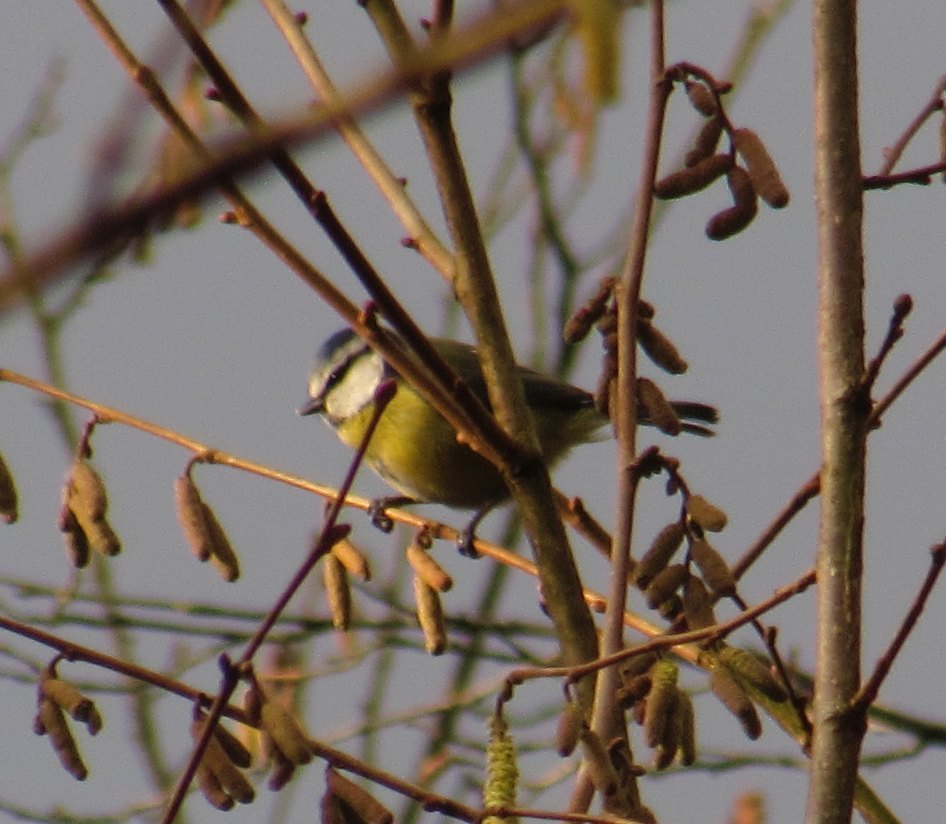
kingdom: Animalia
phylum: Chordata
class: Aves
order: Passeriformes
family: Paridae
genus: Cyanistes
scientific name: Cyanistes caeruleus
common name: Eurasian blue tit
